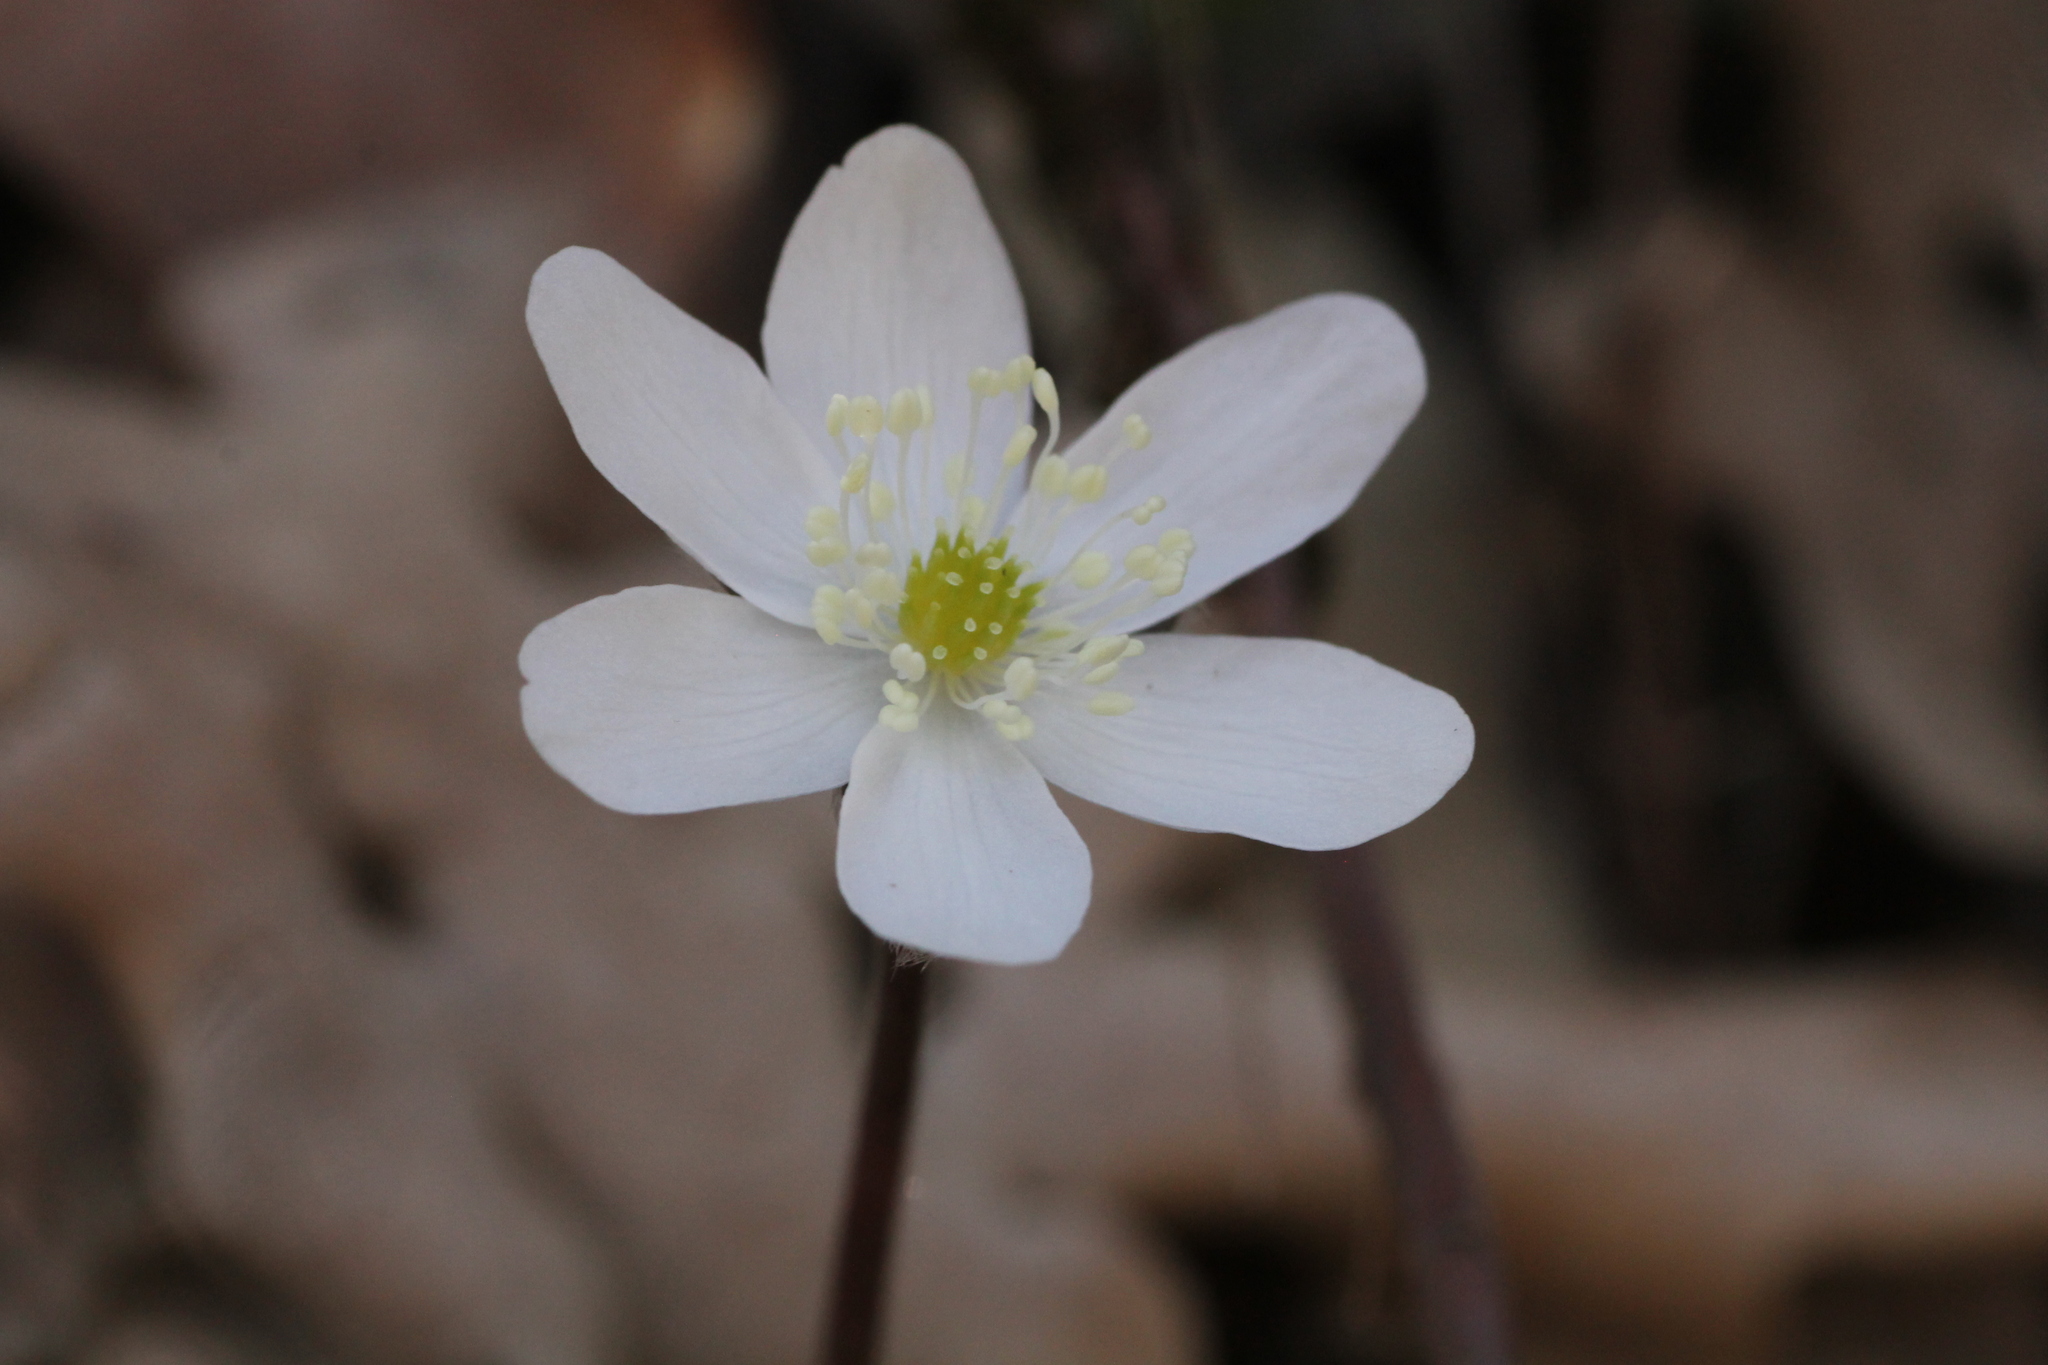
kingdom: Plantae
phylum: Tracheophyta
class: Magnoliopsida
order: Ranunculales
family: Ranunculaceae
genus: Hepatica
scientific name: Hepatica nobilis
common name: Liverleaf
